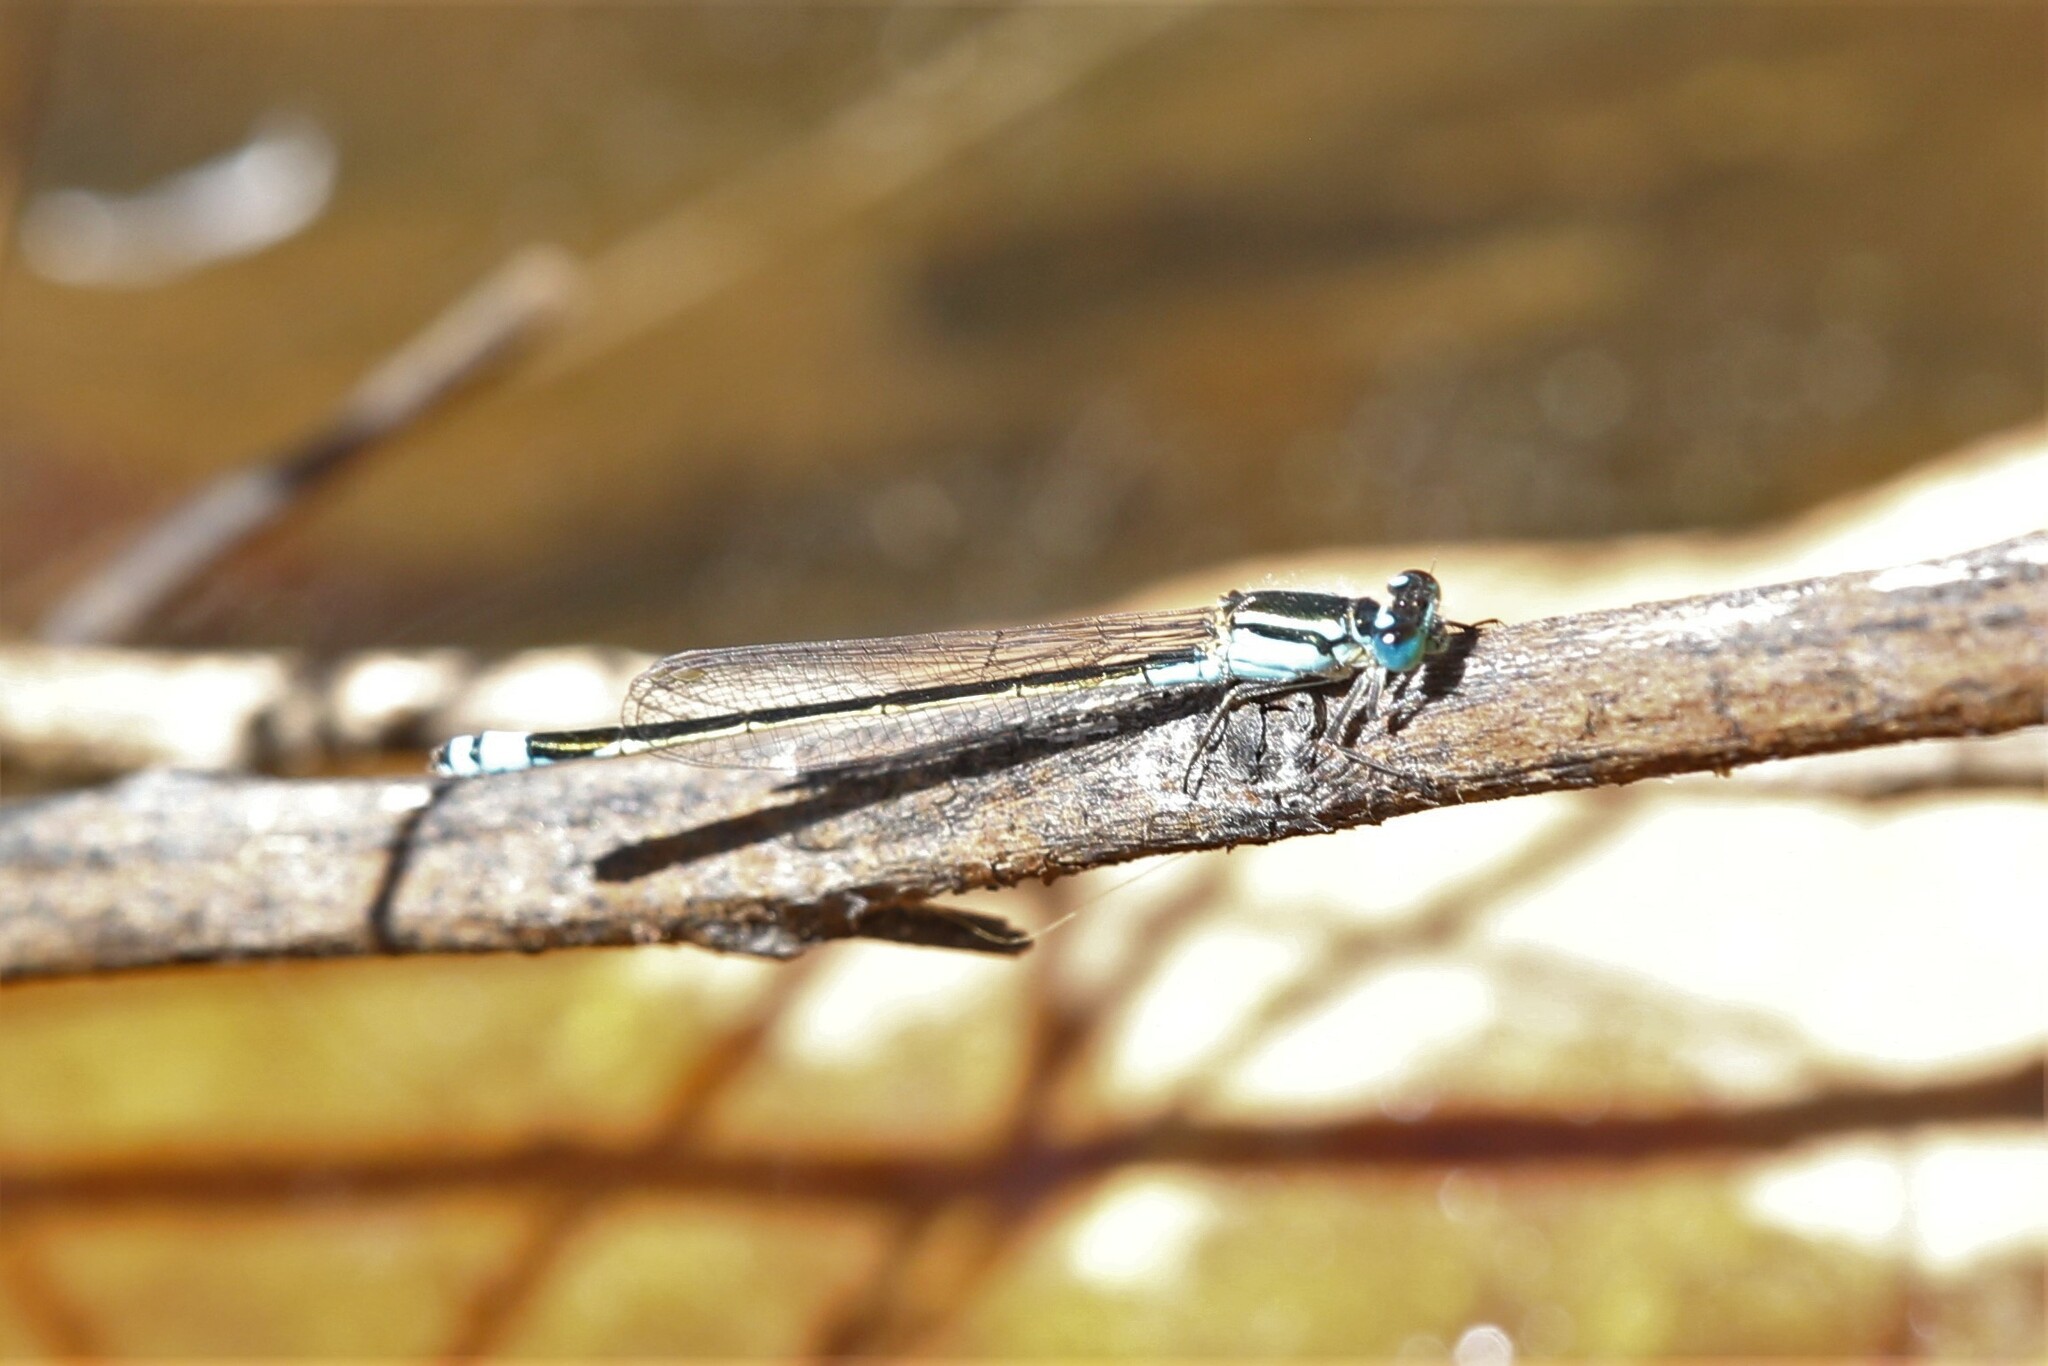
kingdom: Animalia
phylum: Arthropoda
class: Insecta
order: Odonata
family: Coenagrionidae
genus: Ischnura
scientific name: Ischnura heterosticta
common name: Common bluetail
